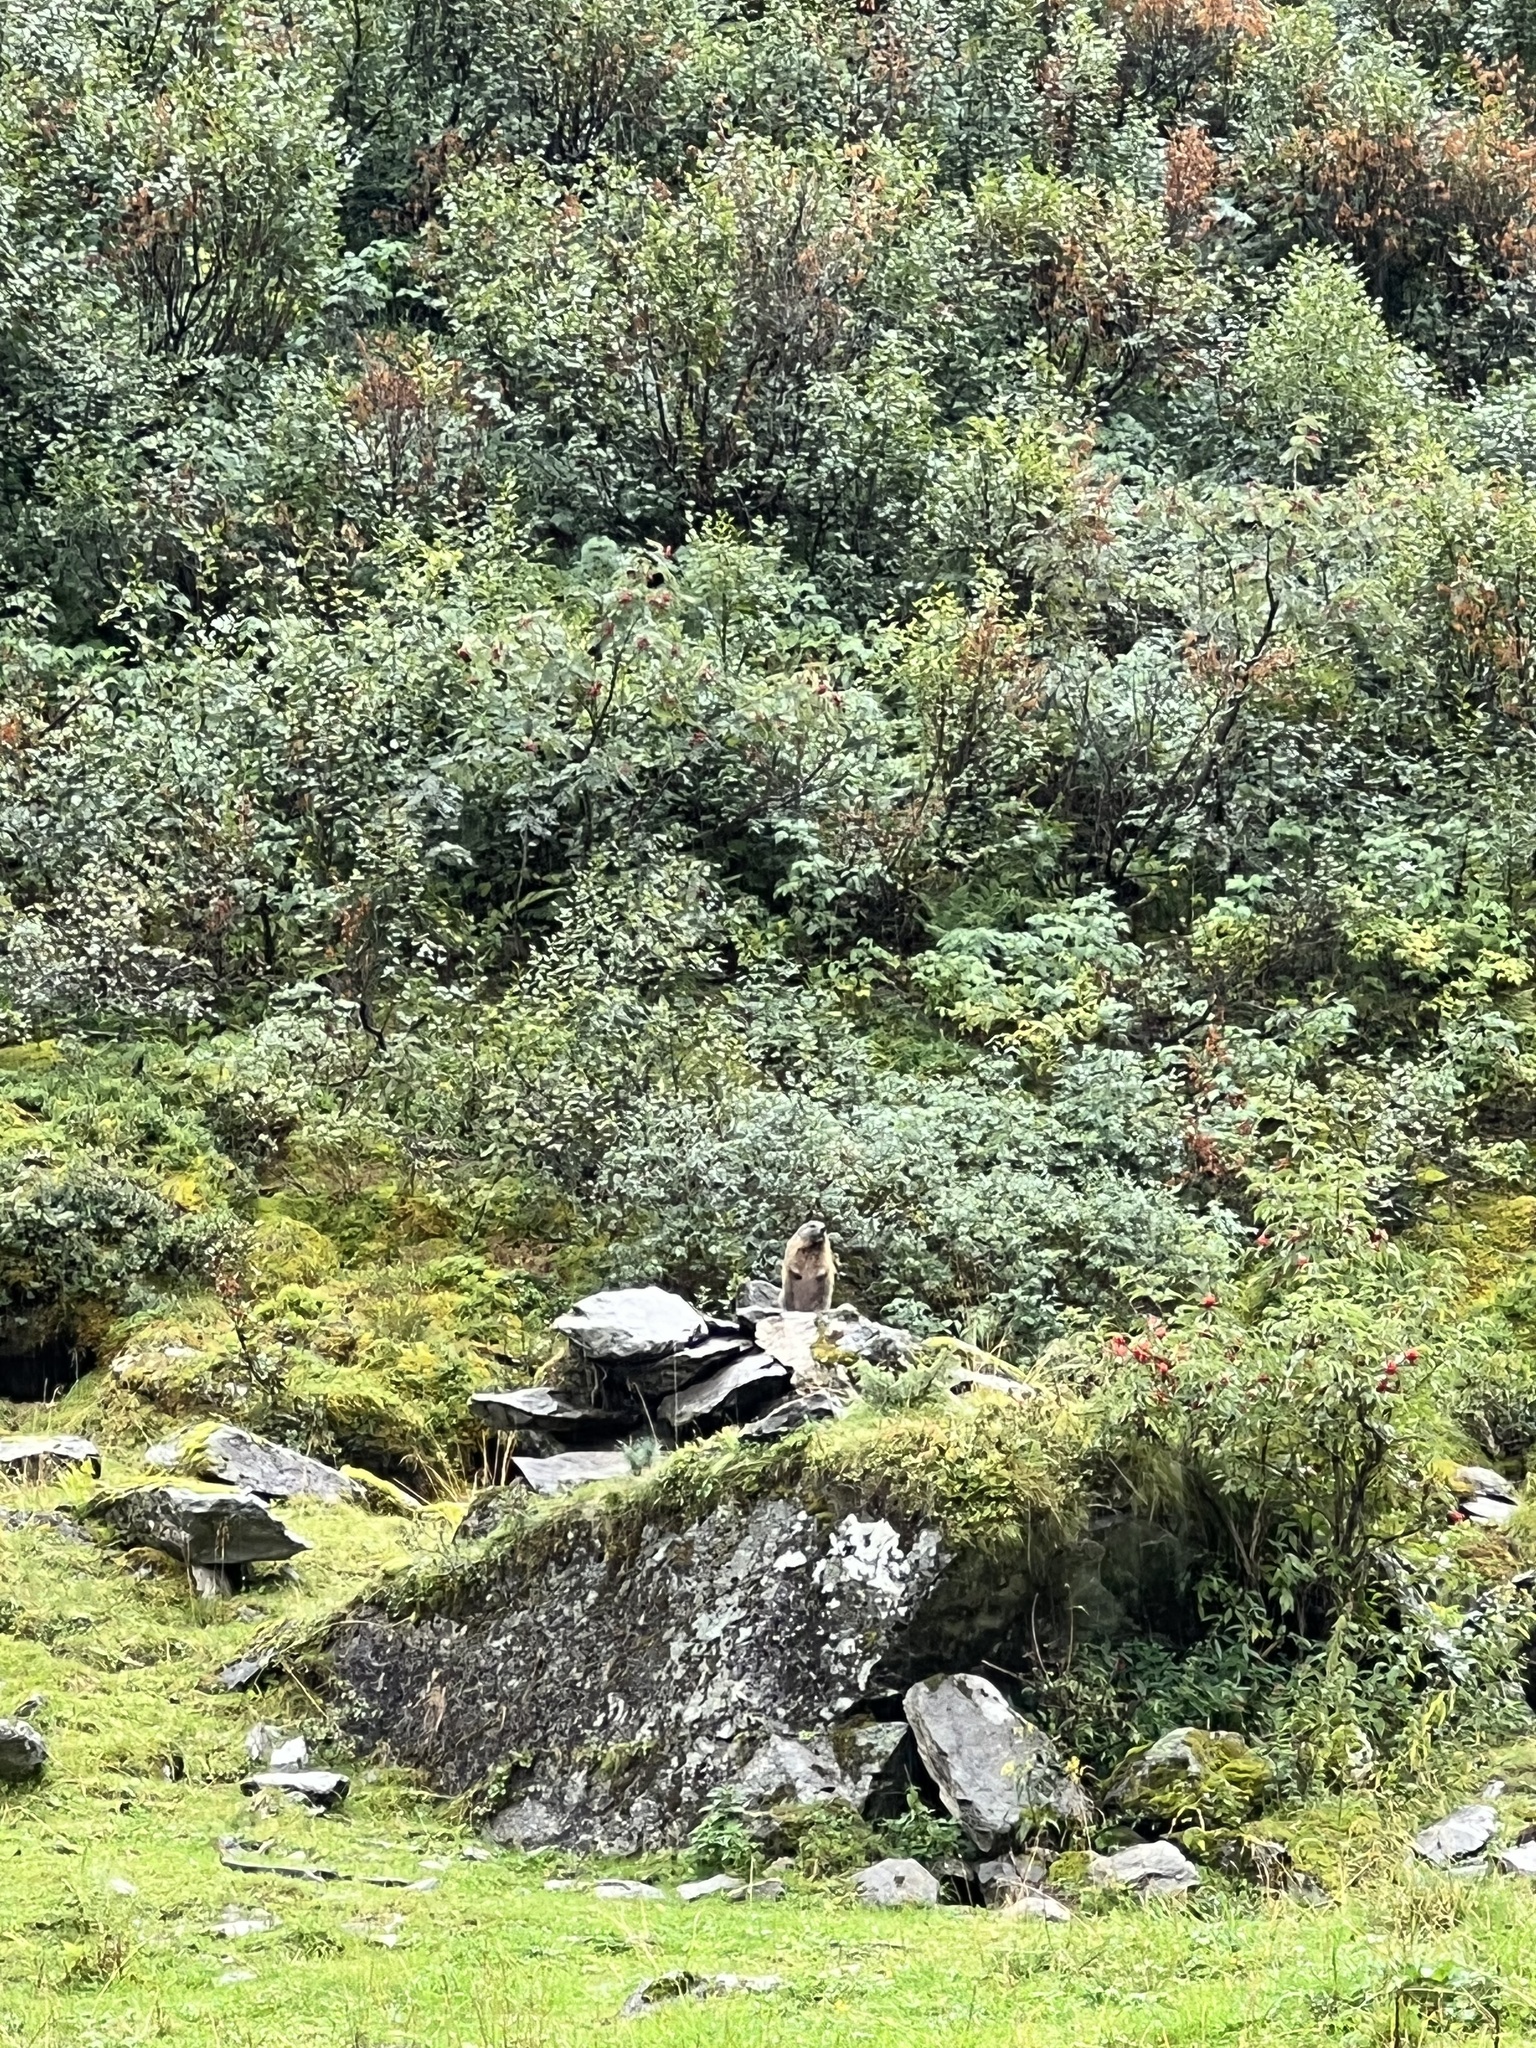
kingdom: Animalia
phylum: Chordata
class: Mammalia
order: Rodentia
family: Sciuridae
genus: Marmota
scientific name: Marmota marmota
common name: Alpine marmot
